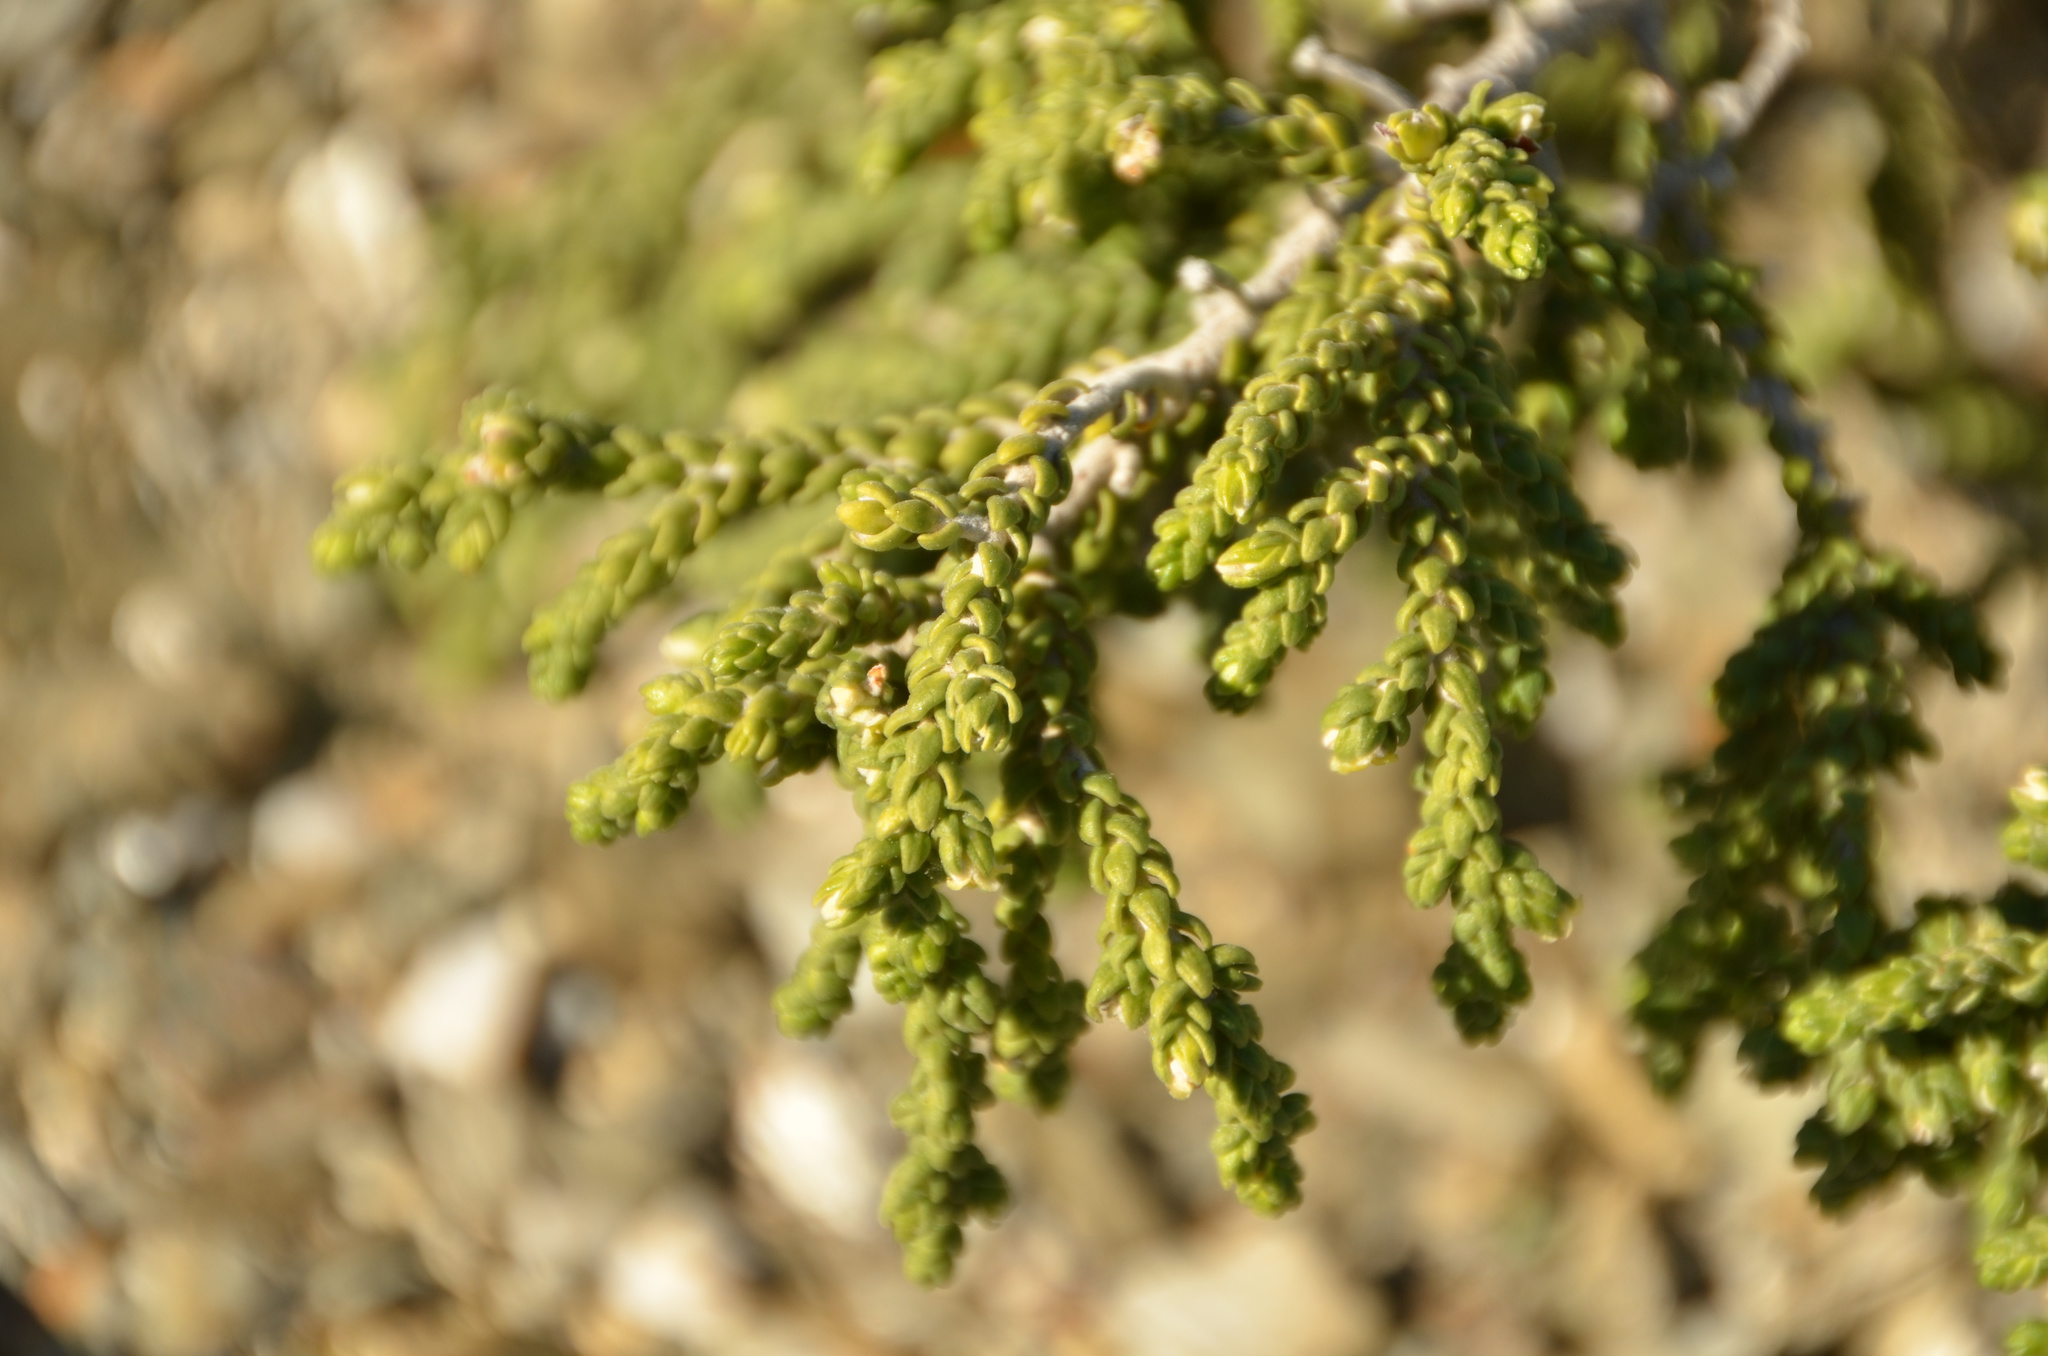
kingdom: Plantae
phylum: Tracheophyta
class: Magnoliopsida
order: Malvales
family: Thymelaeaceae
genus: Thymelaea
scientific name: Thymelaea hirsuta
